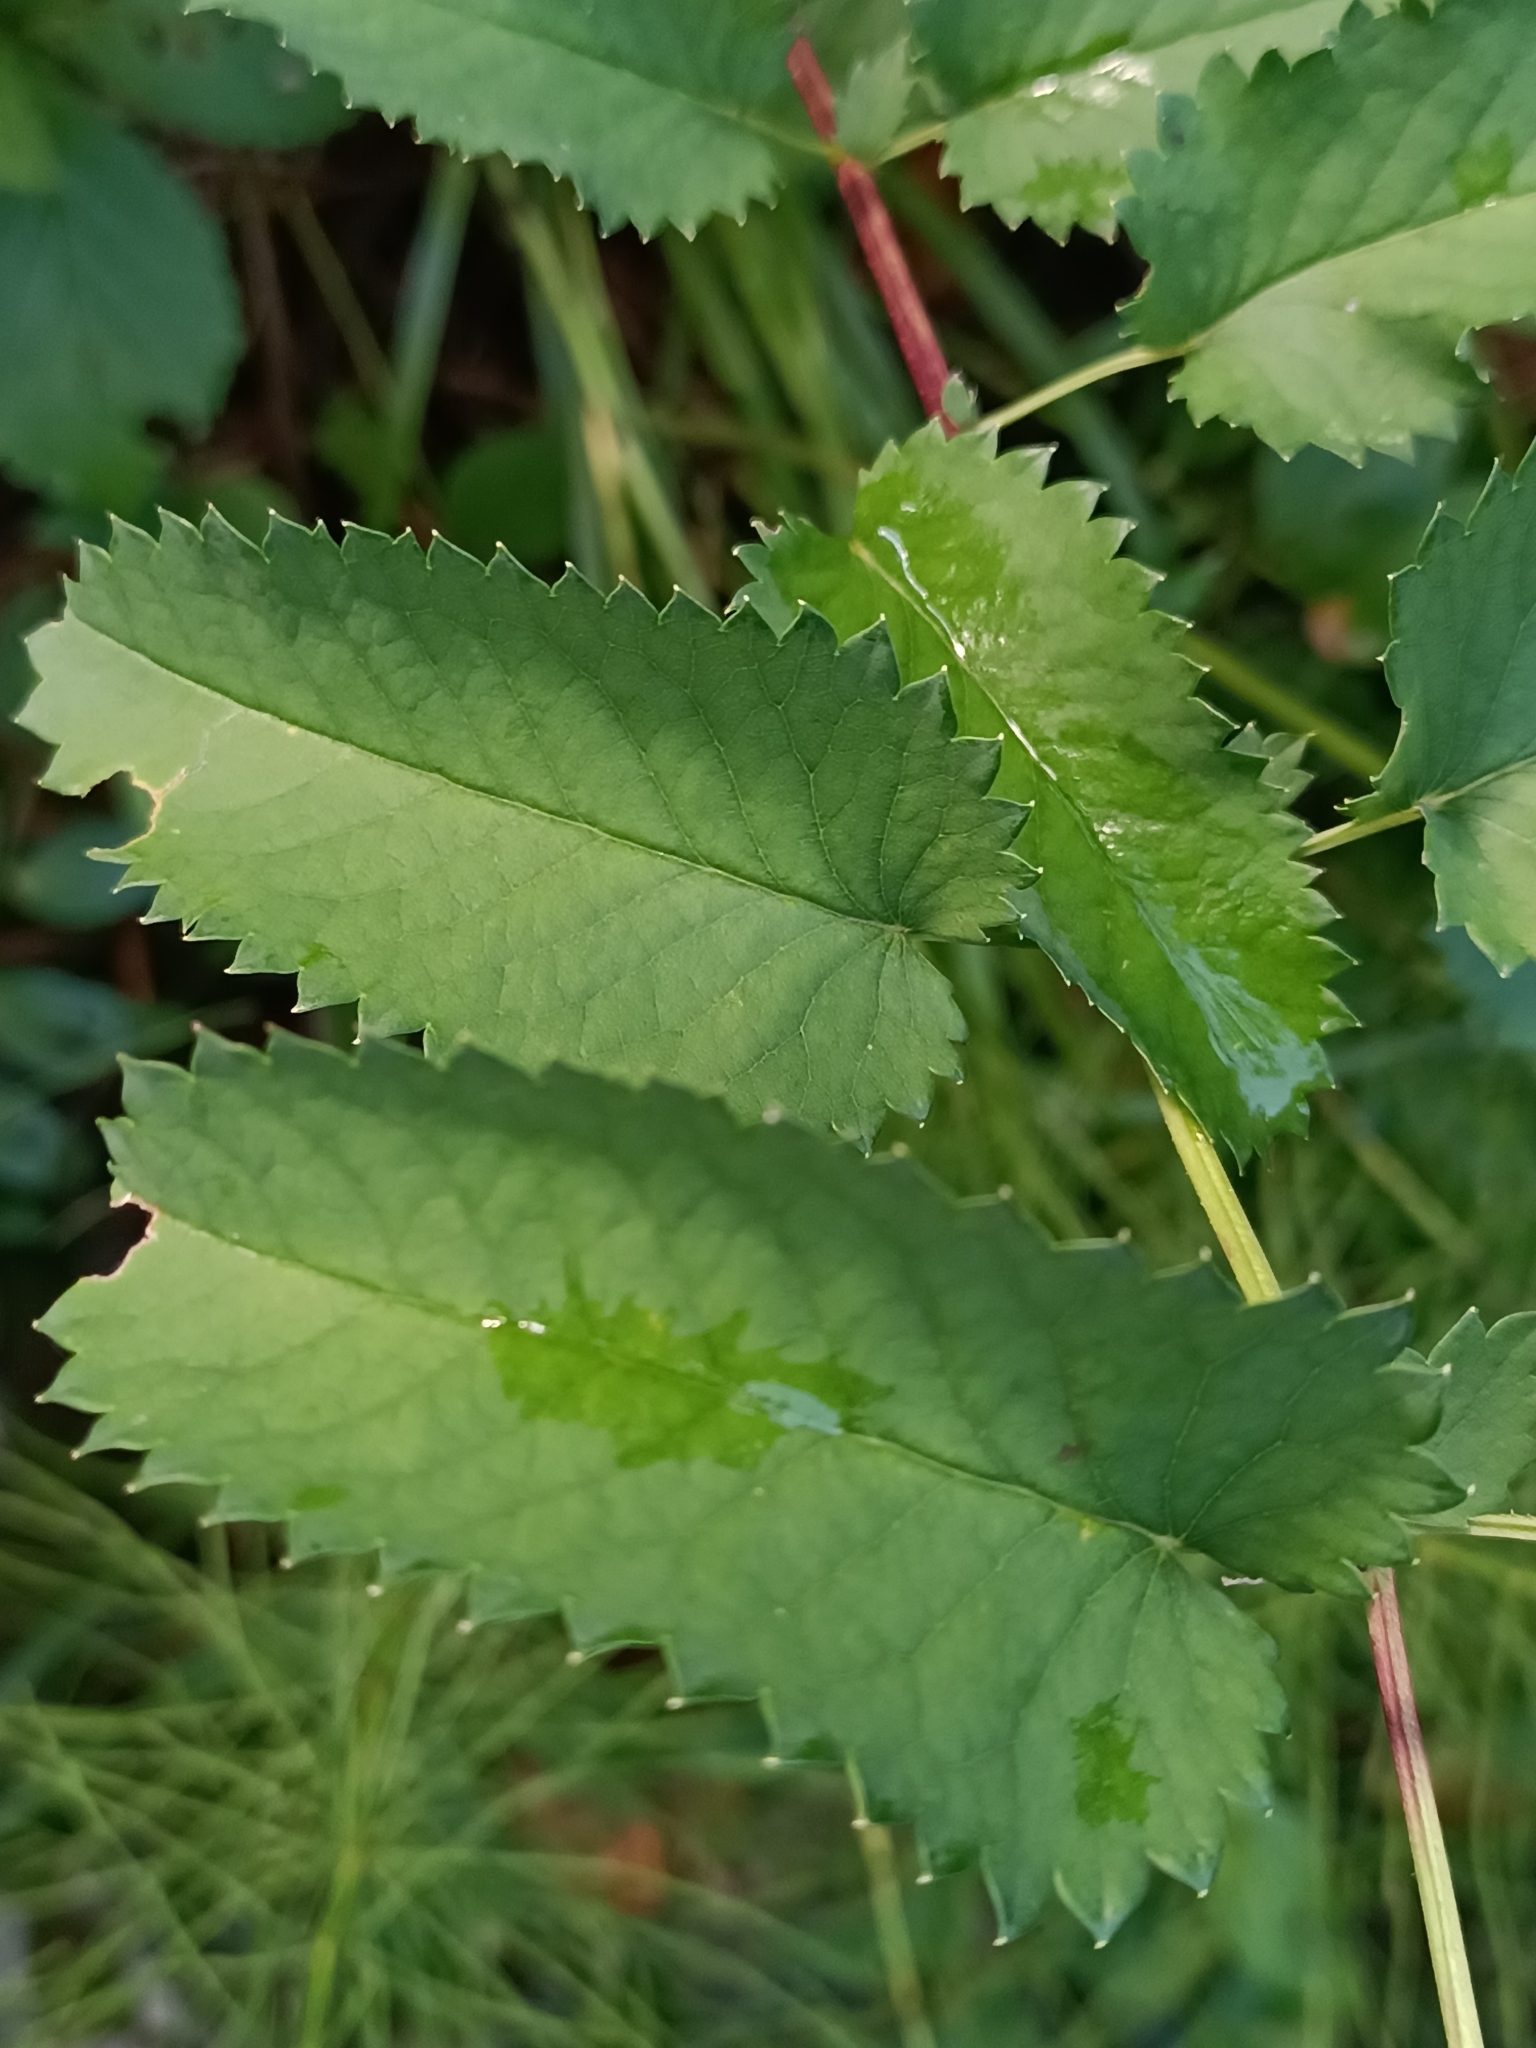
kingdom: Plantae
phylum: Tracheophyta
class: Magnoliopsida
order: Rosales
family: Rosaceae
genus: Sanguisorba
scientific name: Sanguisorba officinalis
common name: Great burnet
